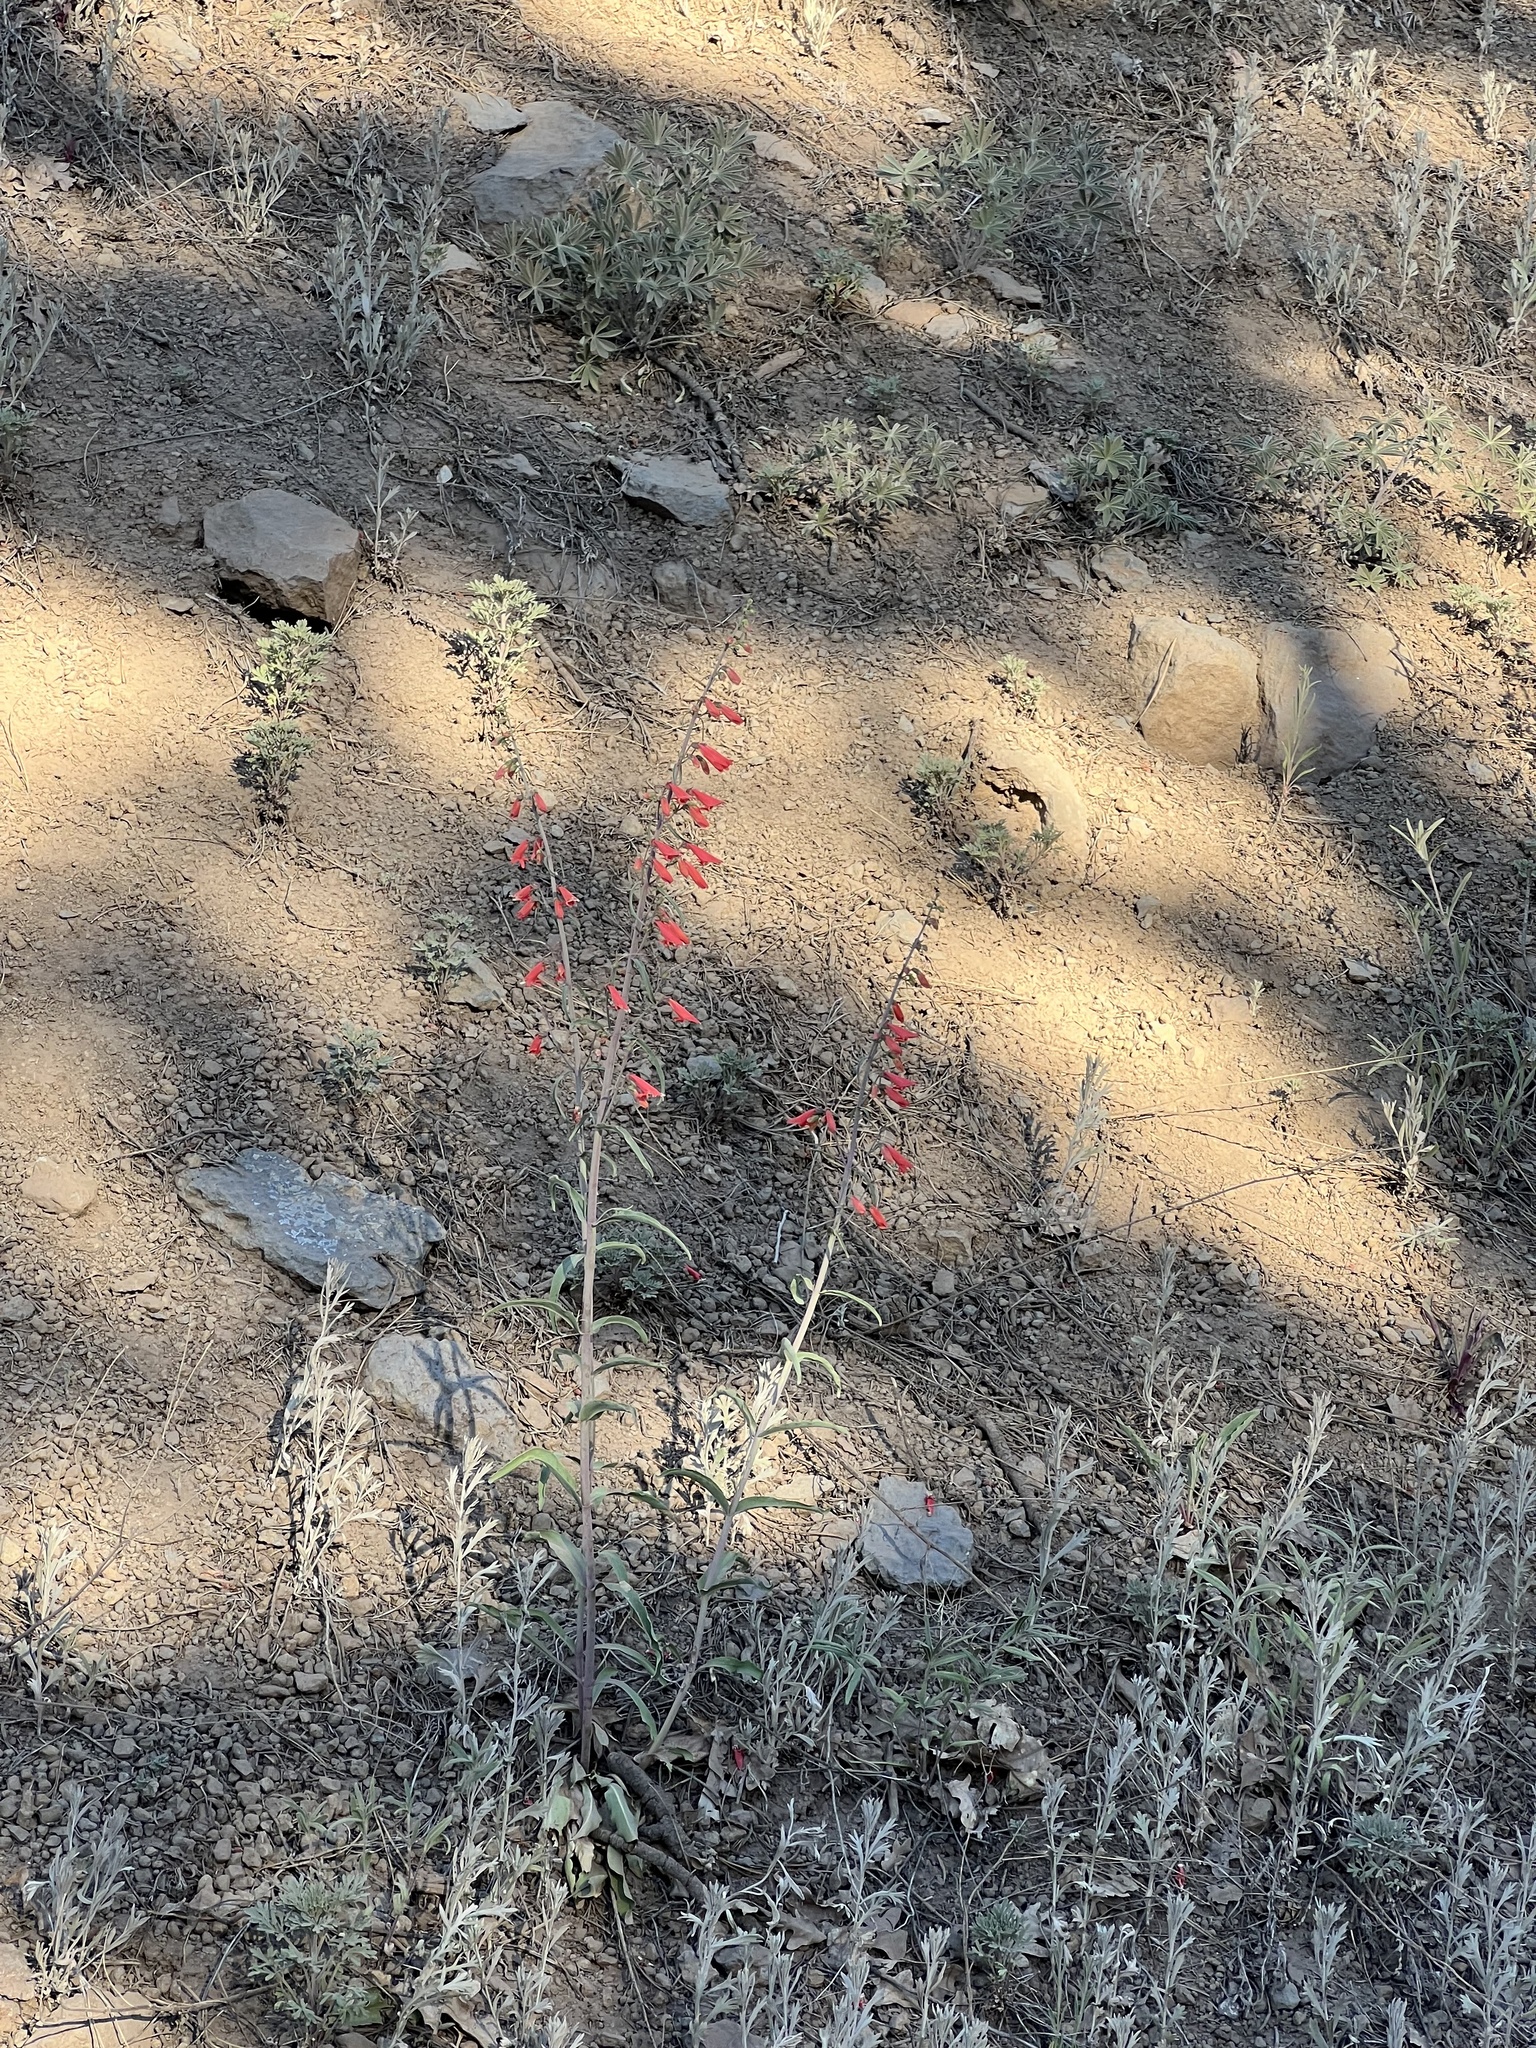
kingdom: Plantae
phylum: Tracheophyta
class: Magnoliopsida
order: Lamiales
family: Plantaginaceae
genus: Penstemon
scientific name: Penstemon barbatus
